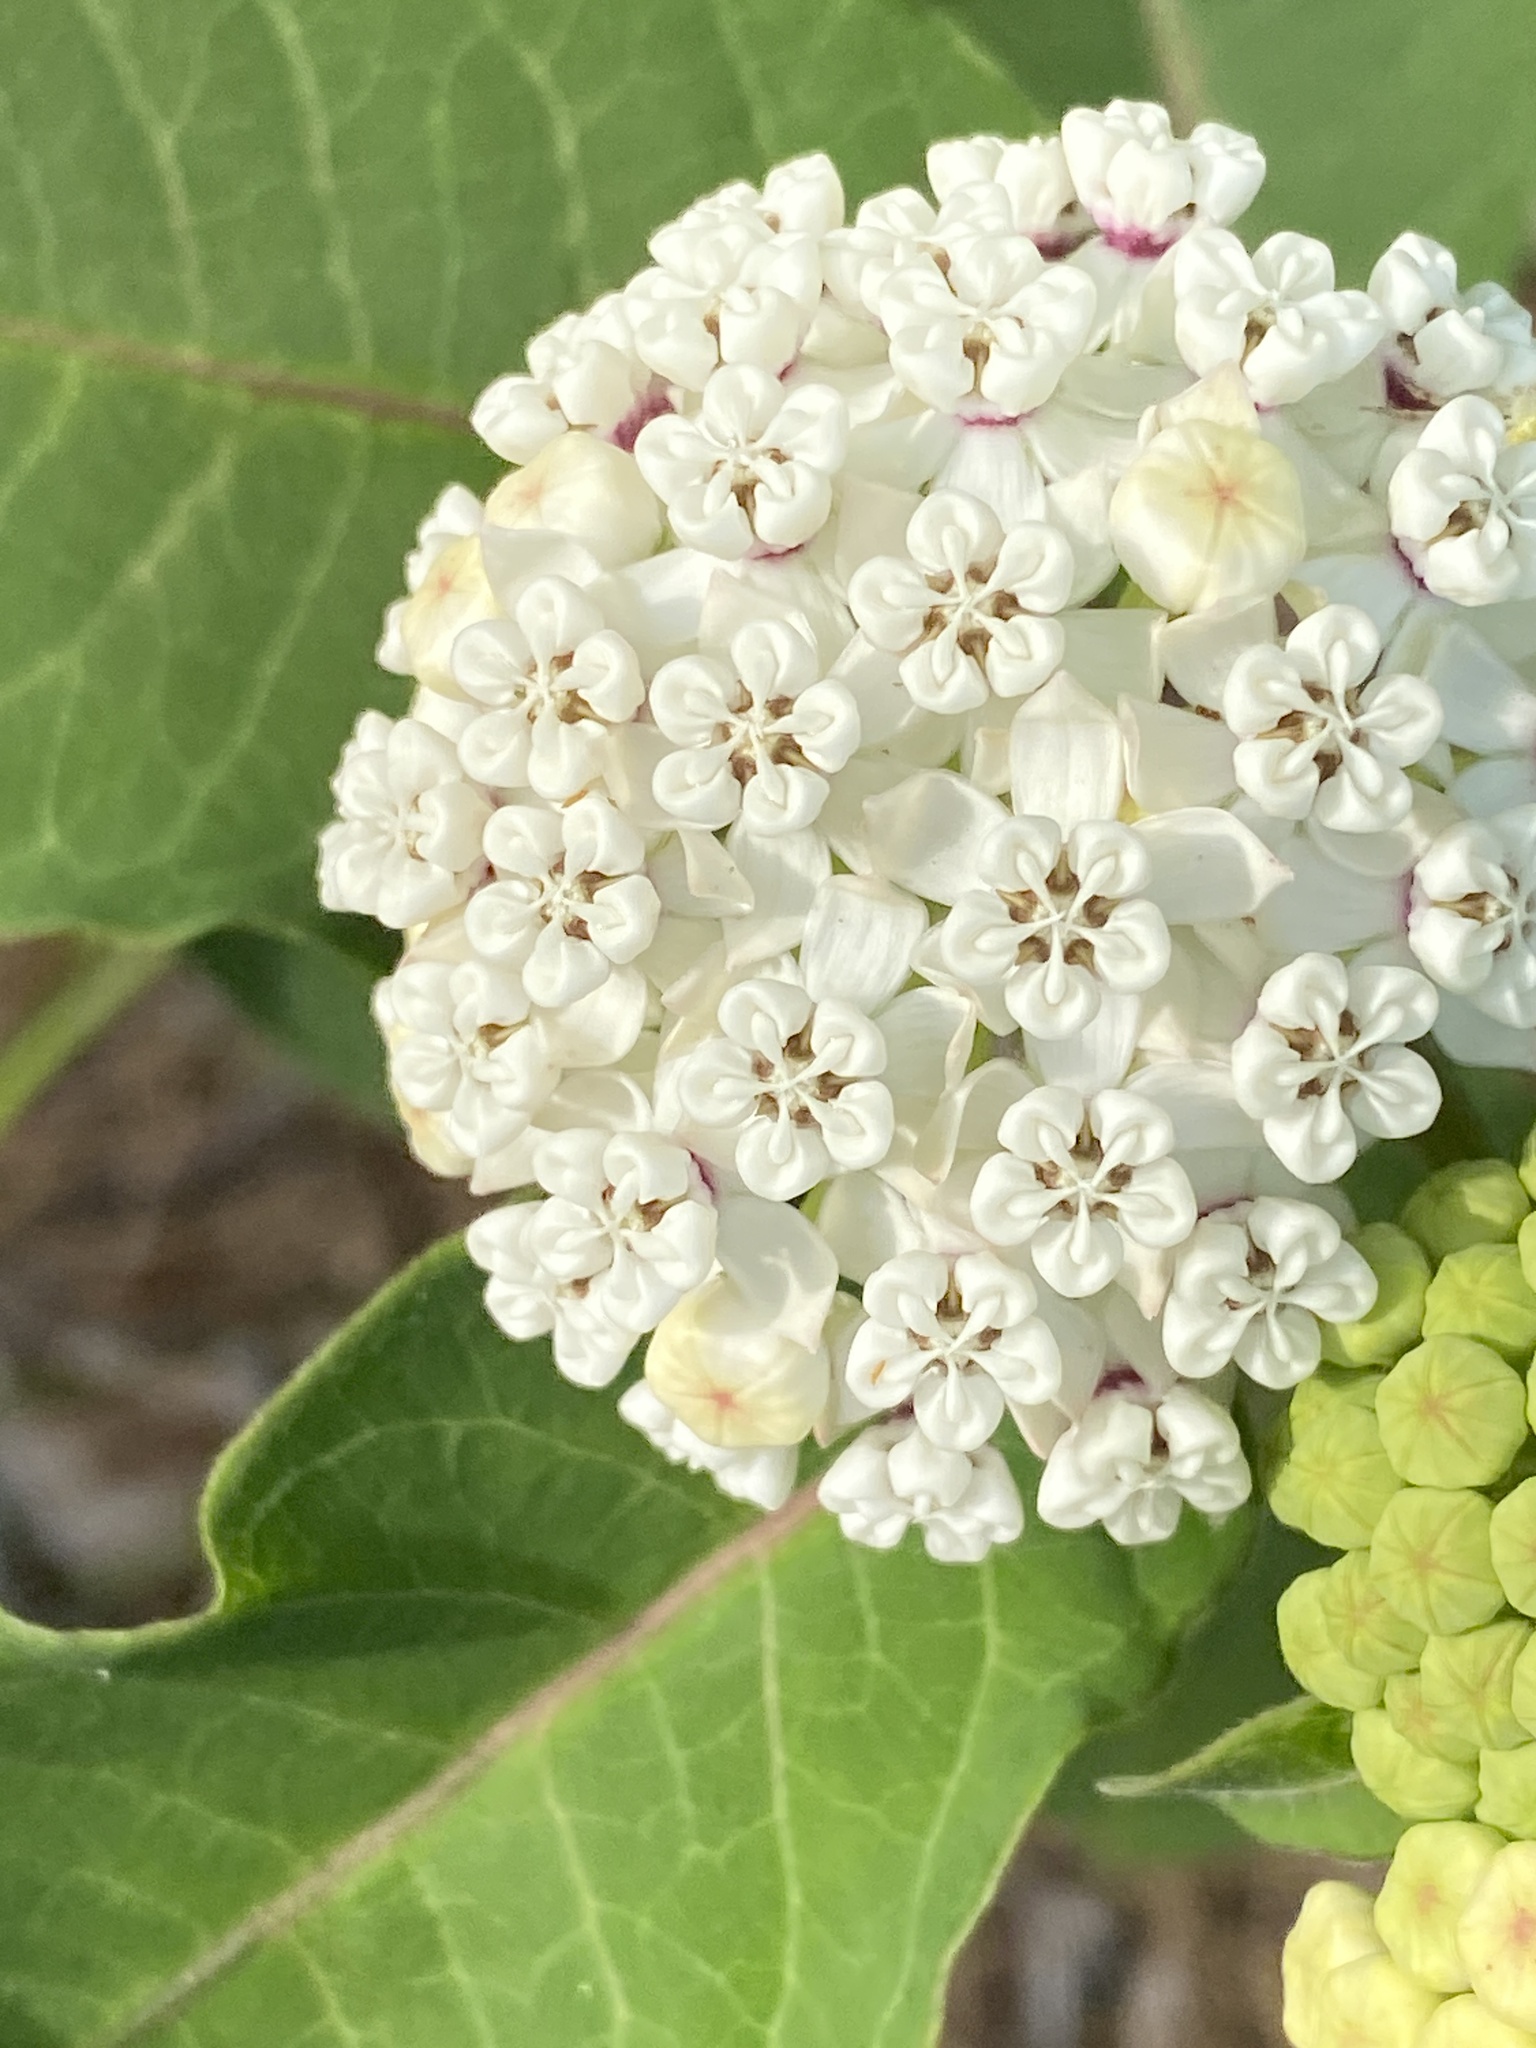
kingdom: Plantae
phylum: Tracheophyta
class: Magnoliopsida
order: Gentianales
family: Apocynaceae
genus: Asclepias
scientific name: Asclepias variegata
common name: Variegated milkweed
